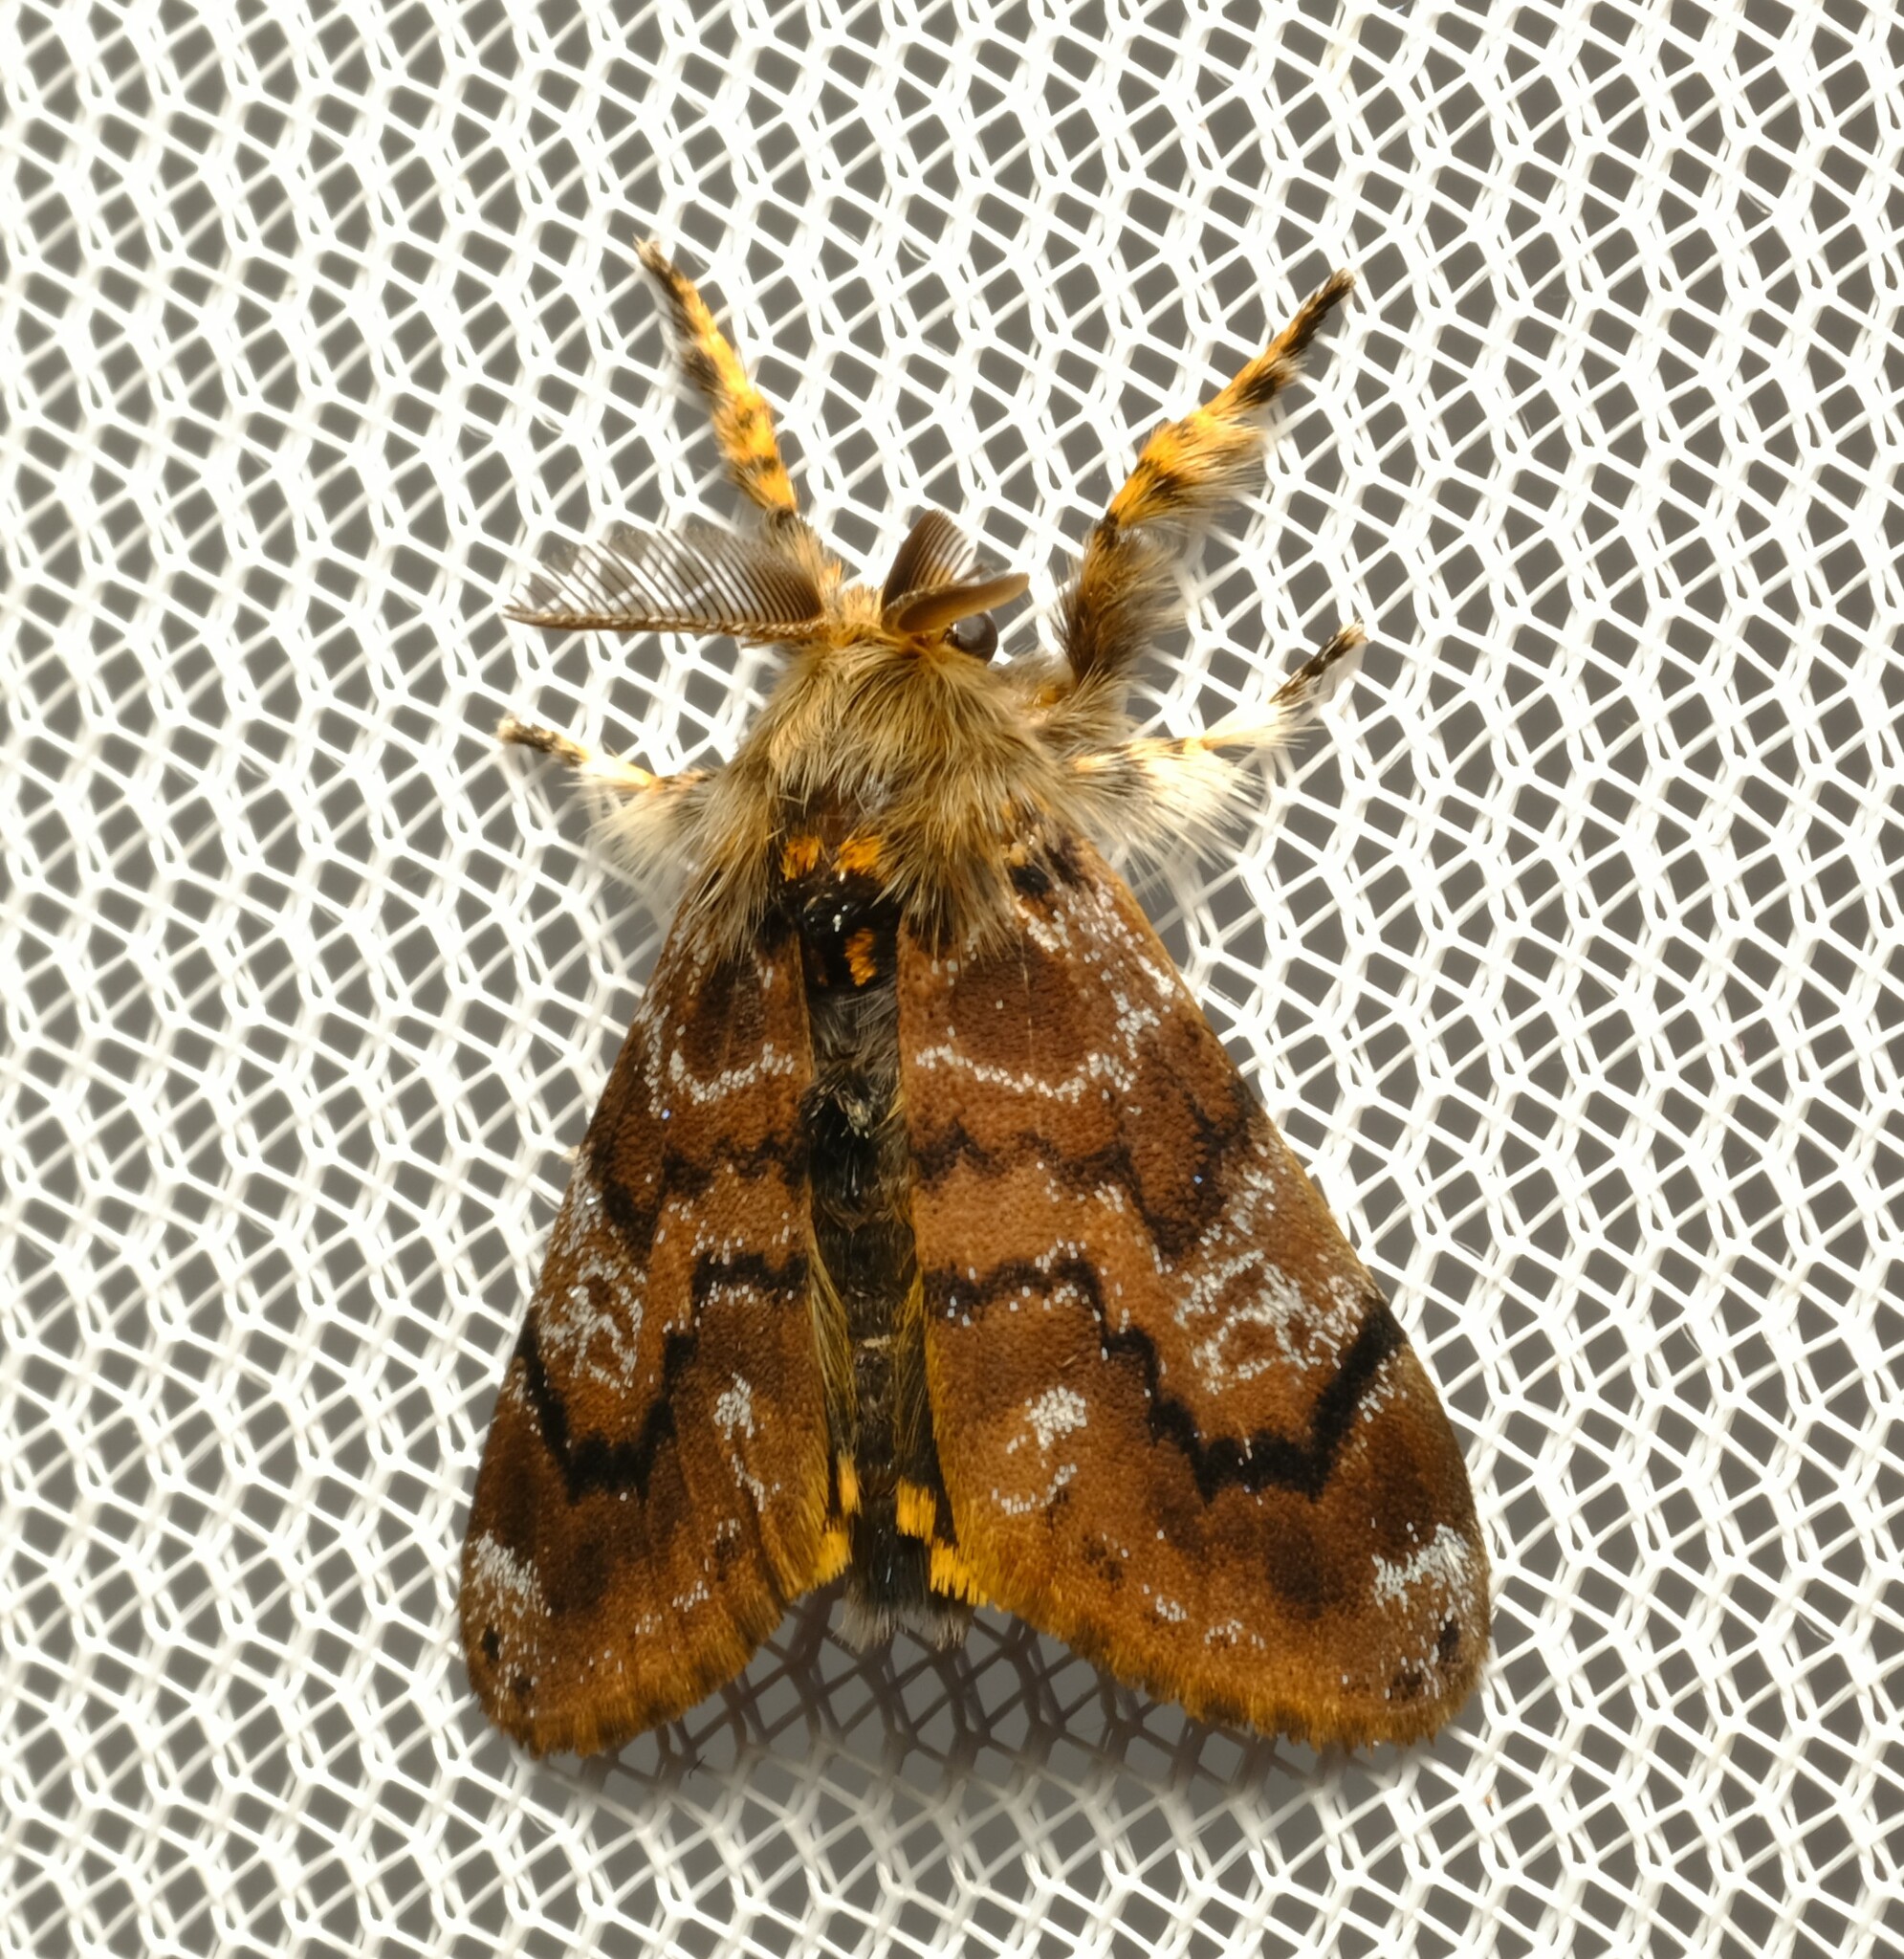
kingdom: Animalia
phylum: Arthropoda
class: Insecta
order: Lepidoptera
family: Erebidae
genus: Orgyia
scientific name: Orgyia
